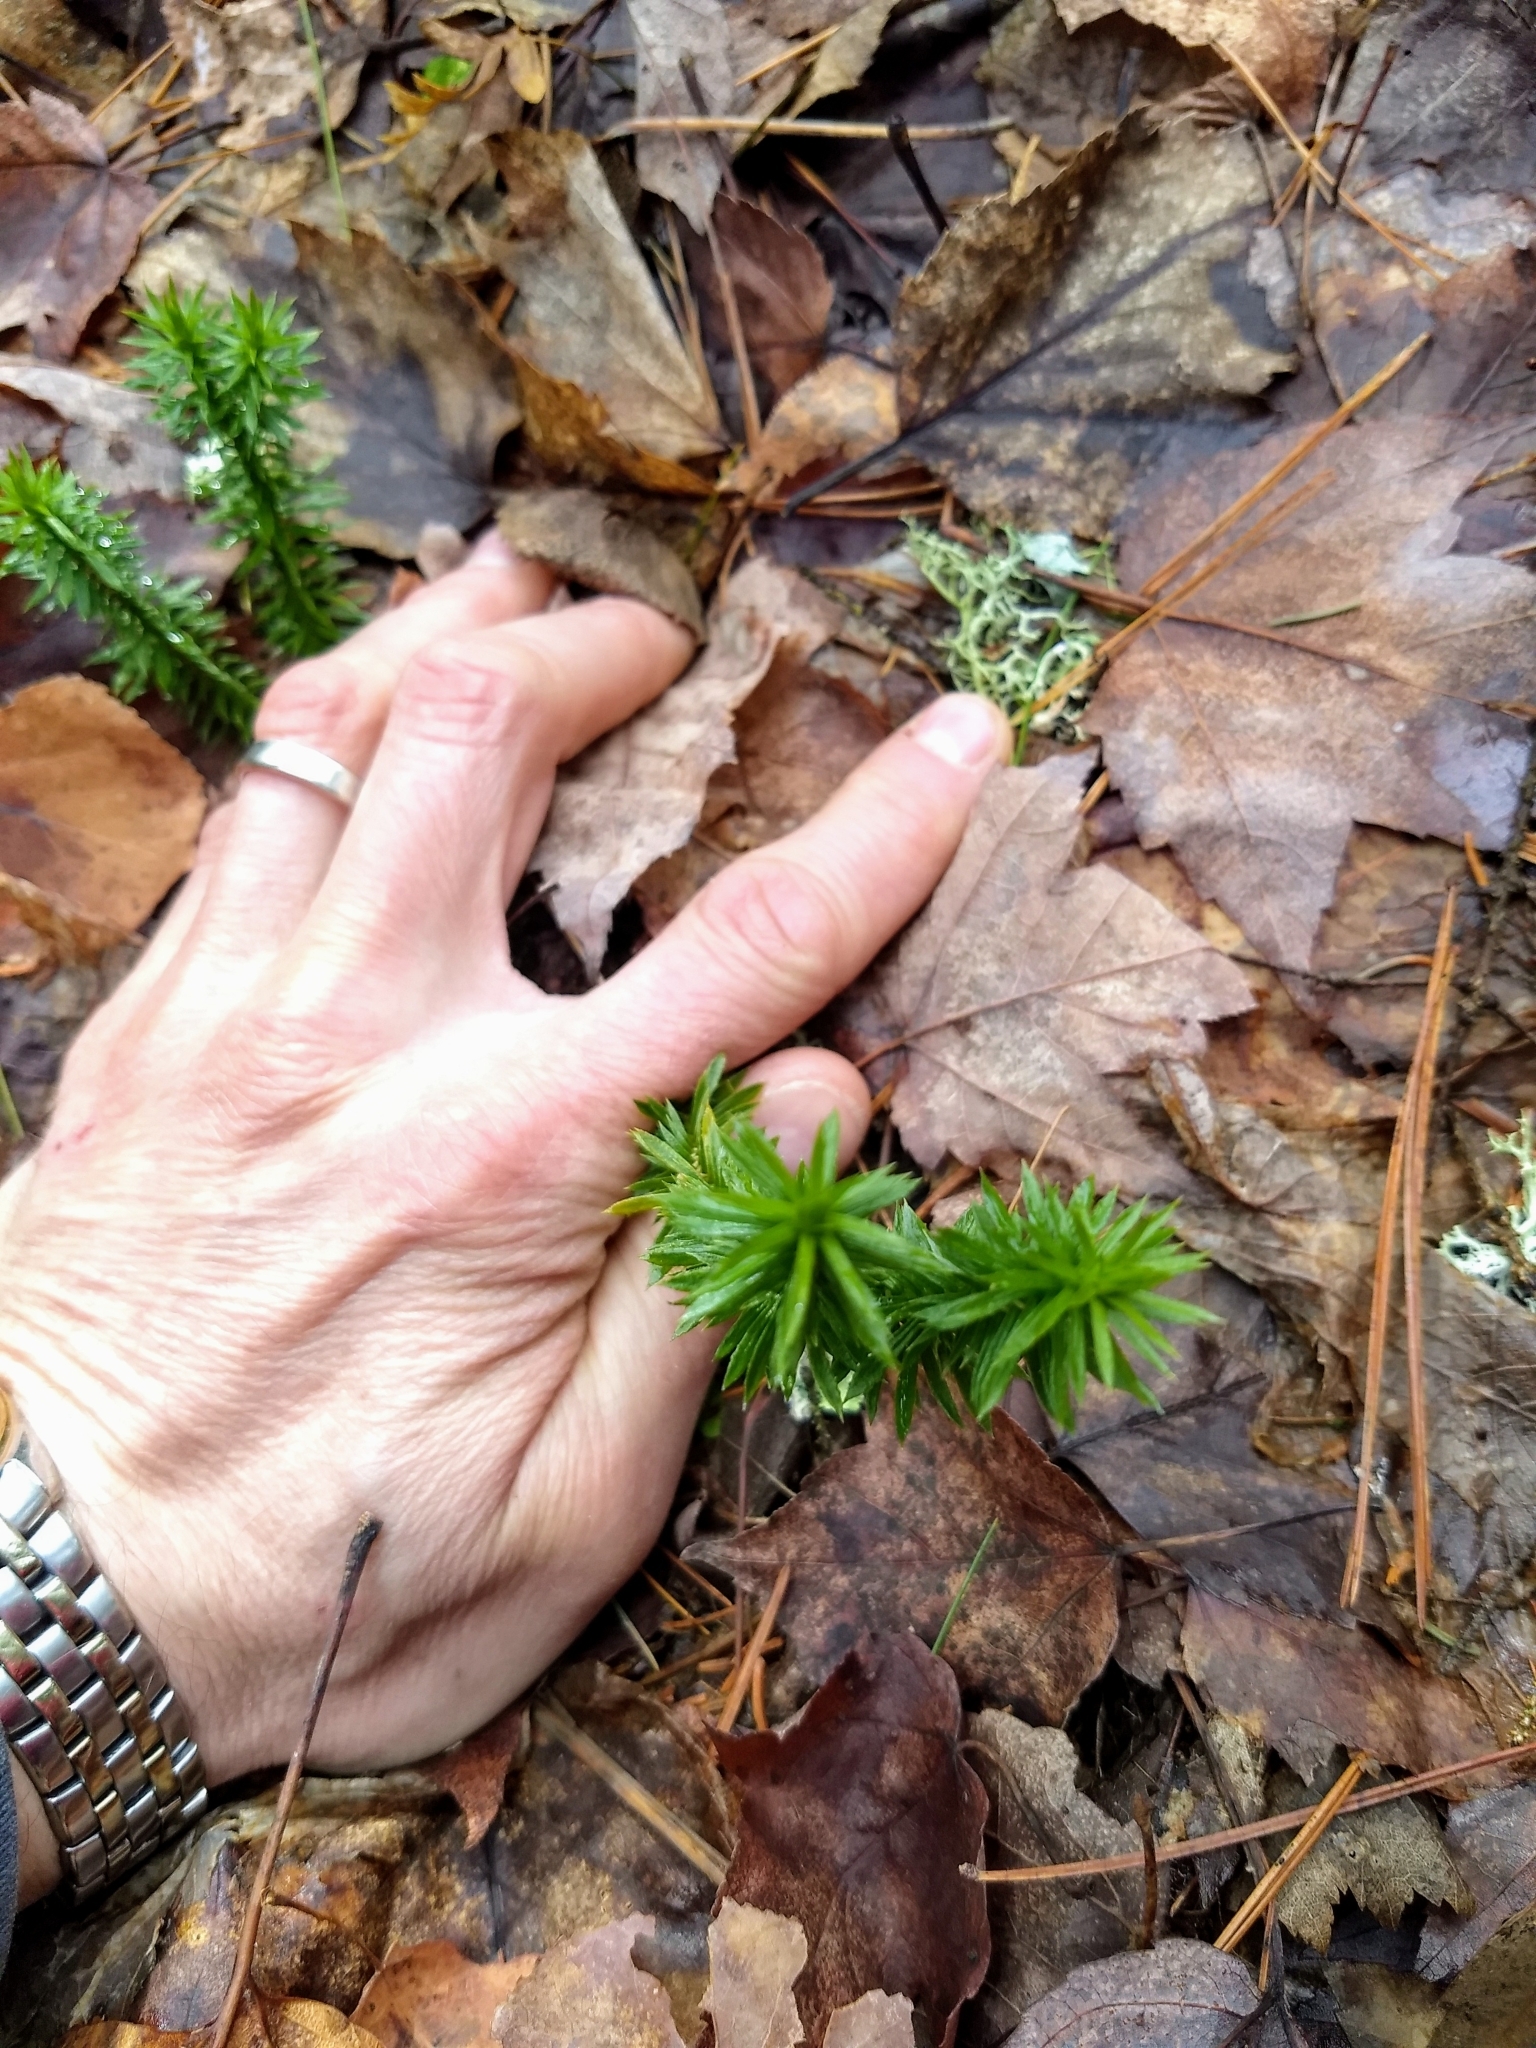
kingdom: Plantae
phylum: Tracheophyta
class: Lycopodiopsida
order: Lycopodiales
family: Lycopodiaceae
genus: Huperzia
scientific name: Huperzia lucidula
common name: Shining clubmoss
